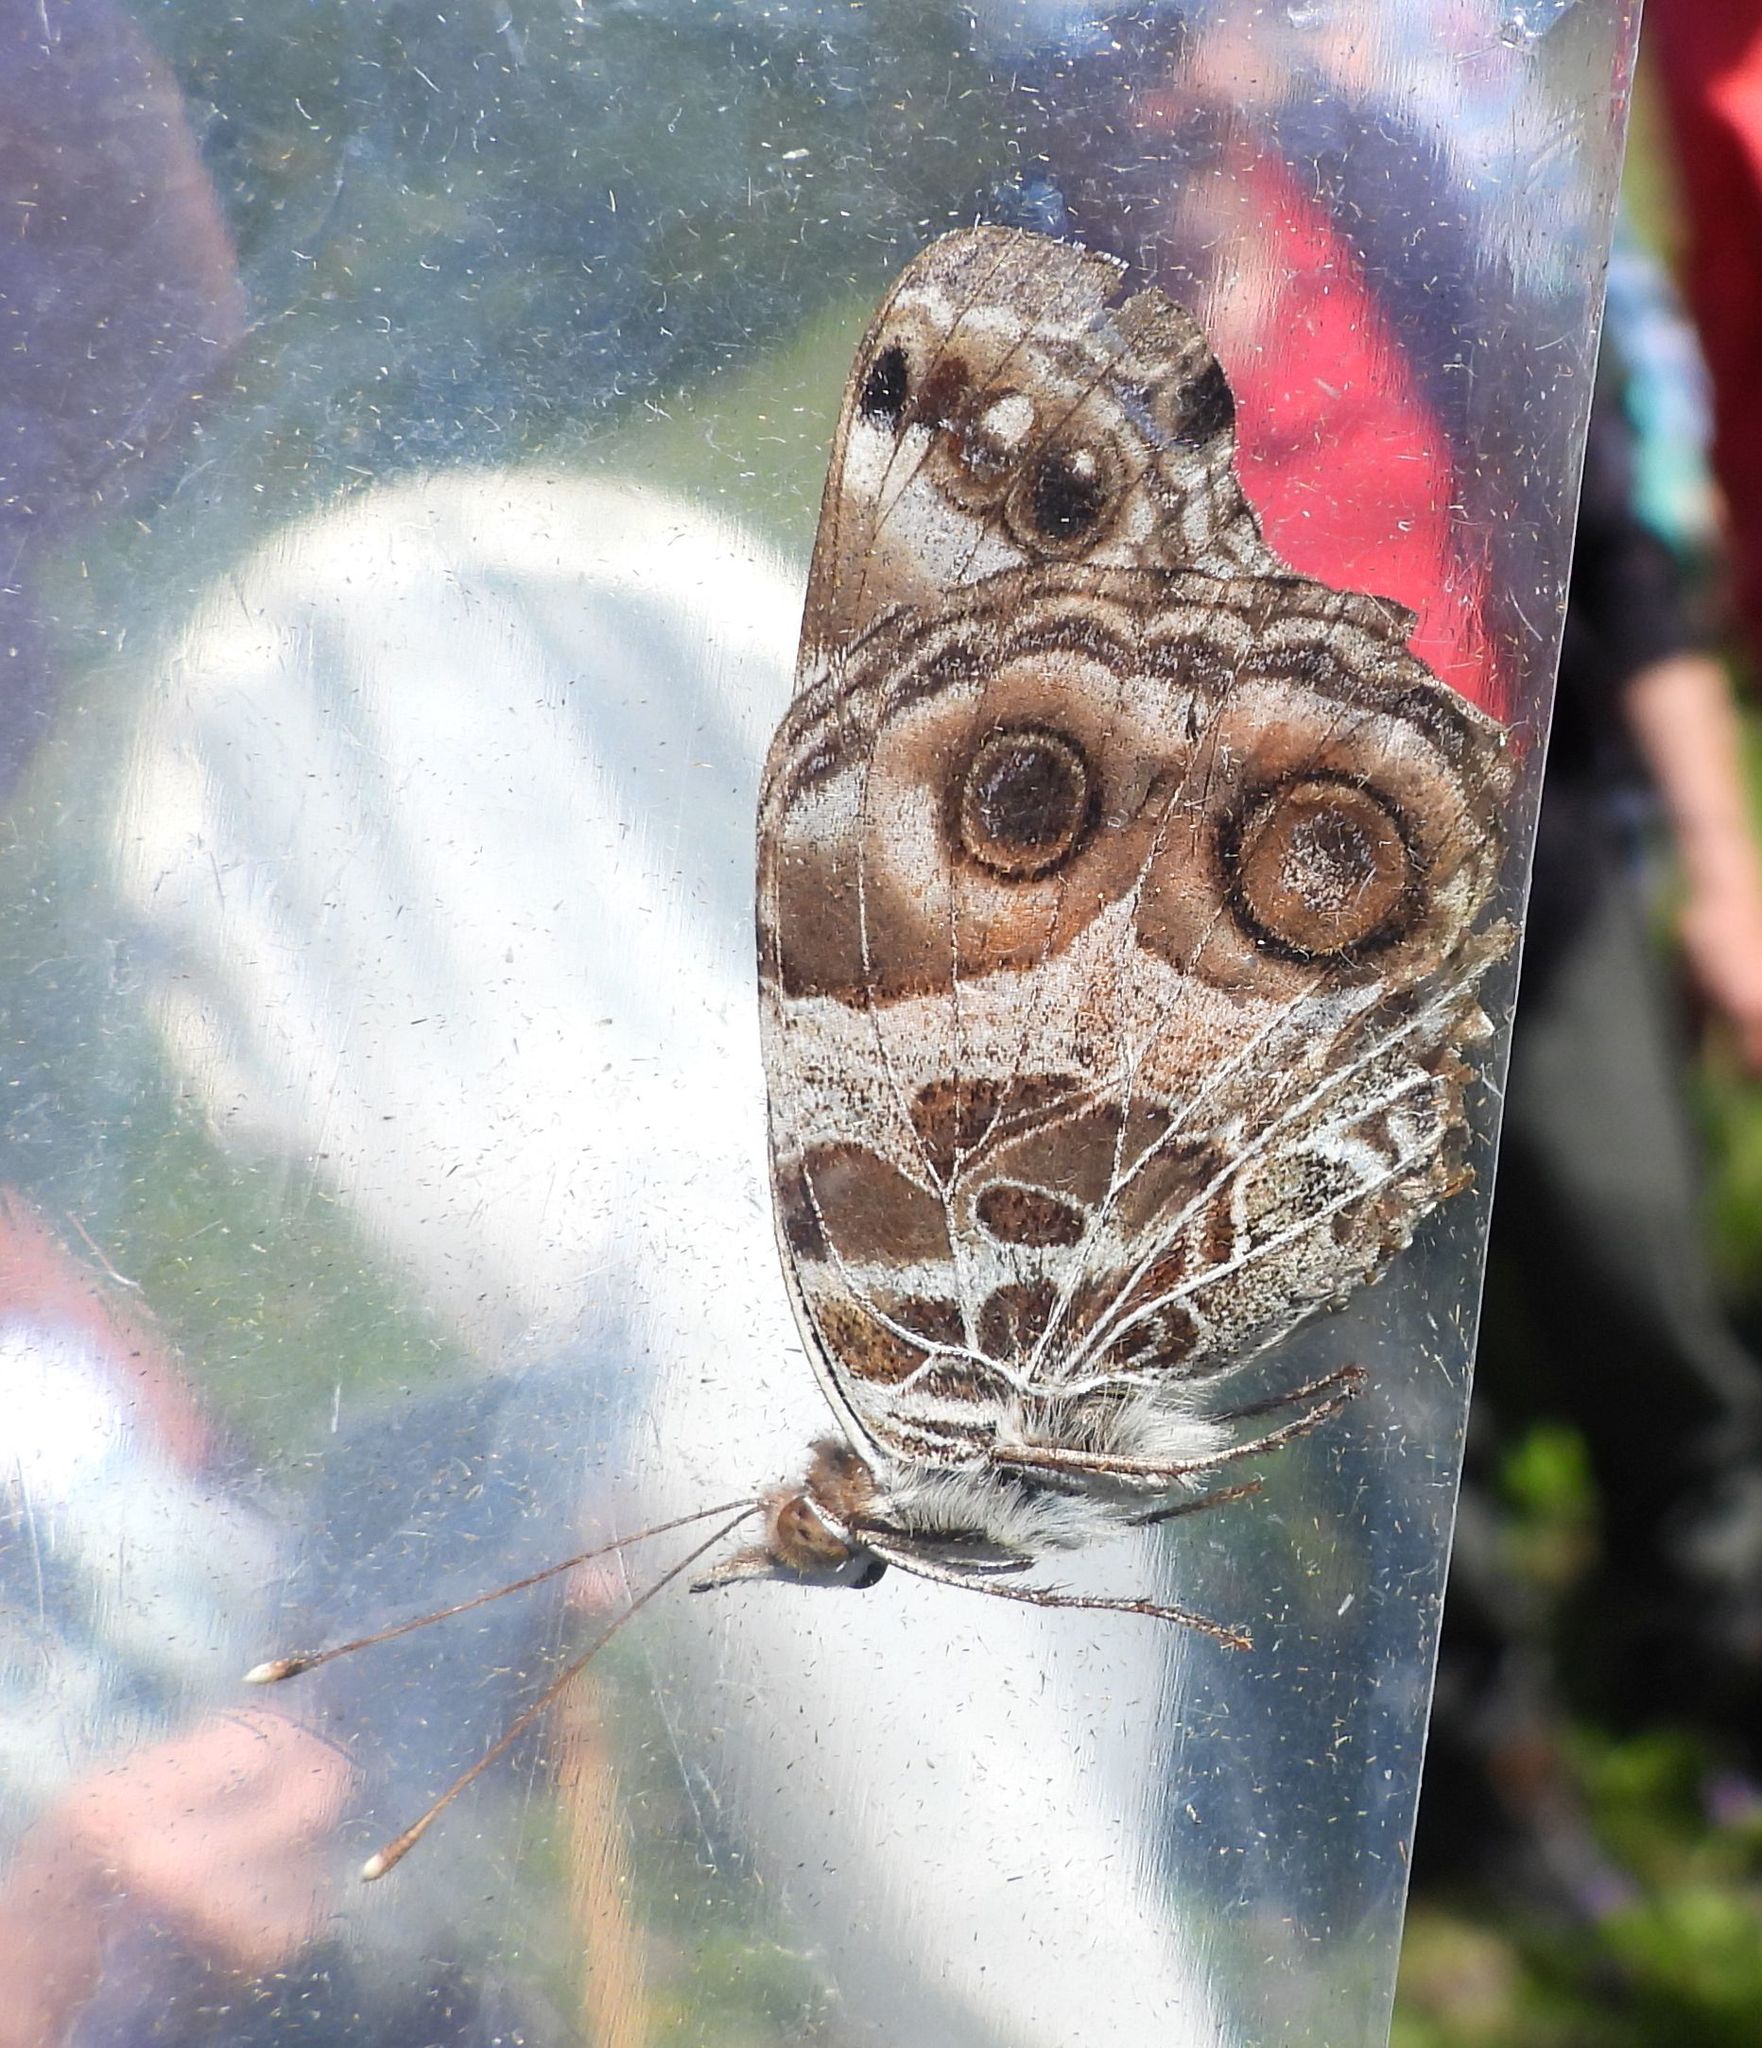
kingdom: Animalia
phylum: Arthropoda
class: Insecta
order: Lepidoptera
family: Nymphalidae
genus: Vanessa
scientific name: Vanessa virginiensis
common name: American lady
